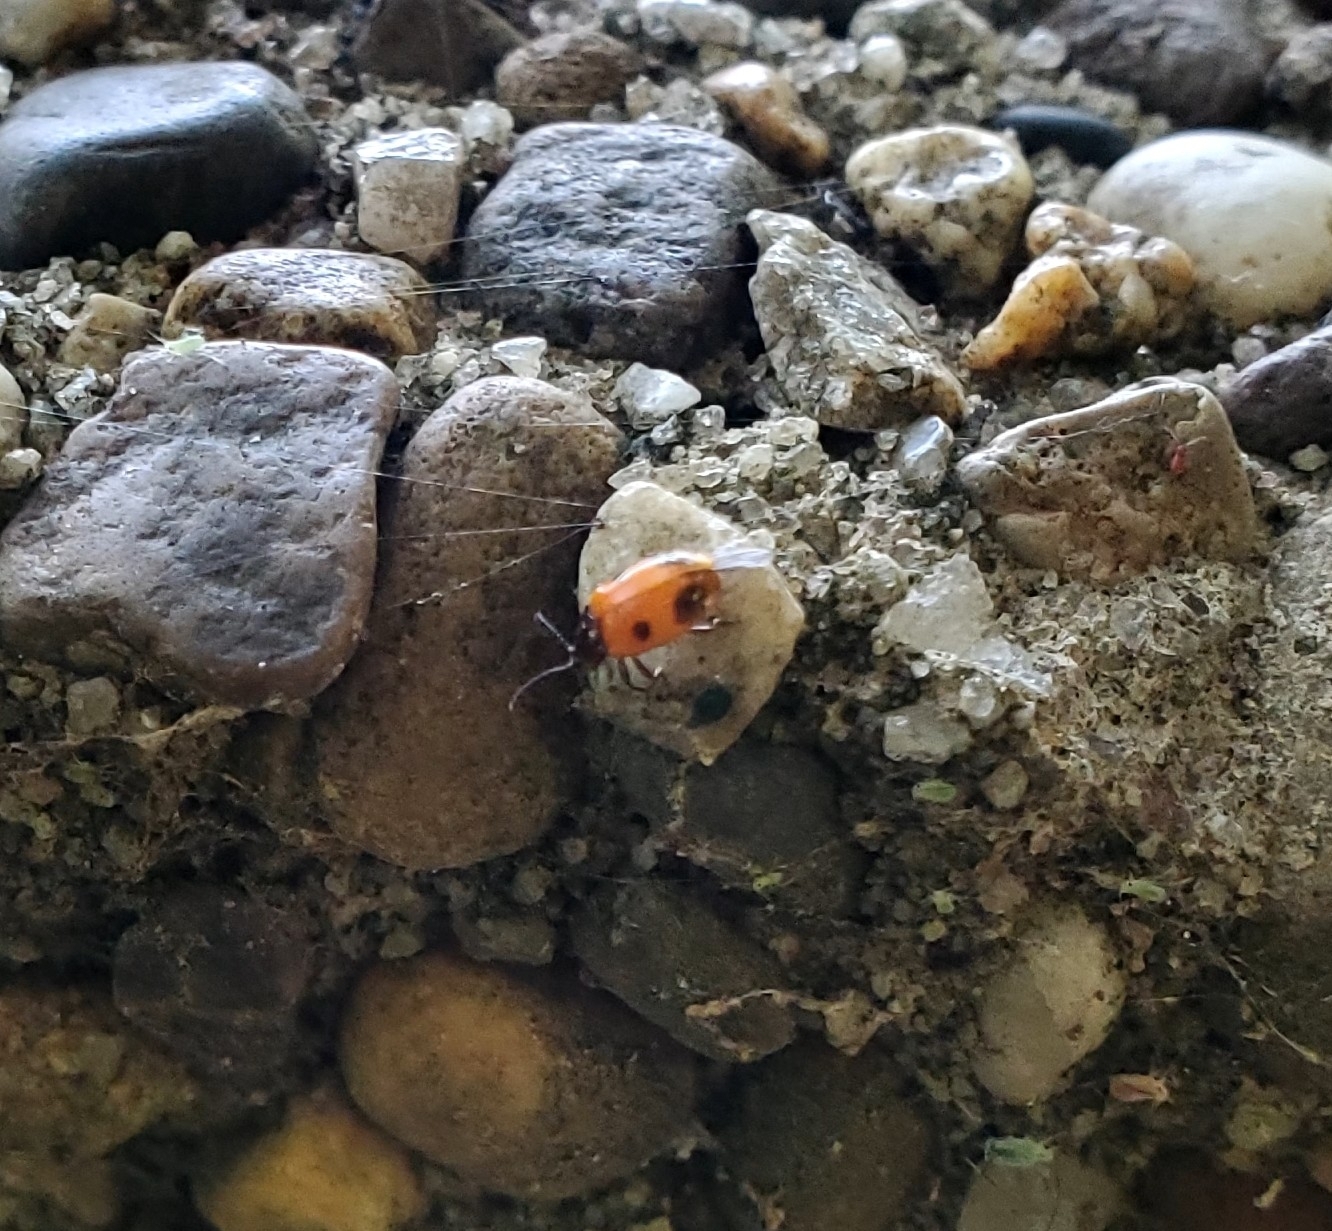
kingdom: Animalia
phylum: Arthropoda
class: Insecta
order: Coleoptera
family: Endomychidae
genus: Endomychus
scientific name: Endomychus biguttatus
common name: Handsome fungus beetle
